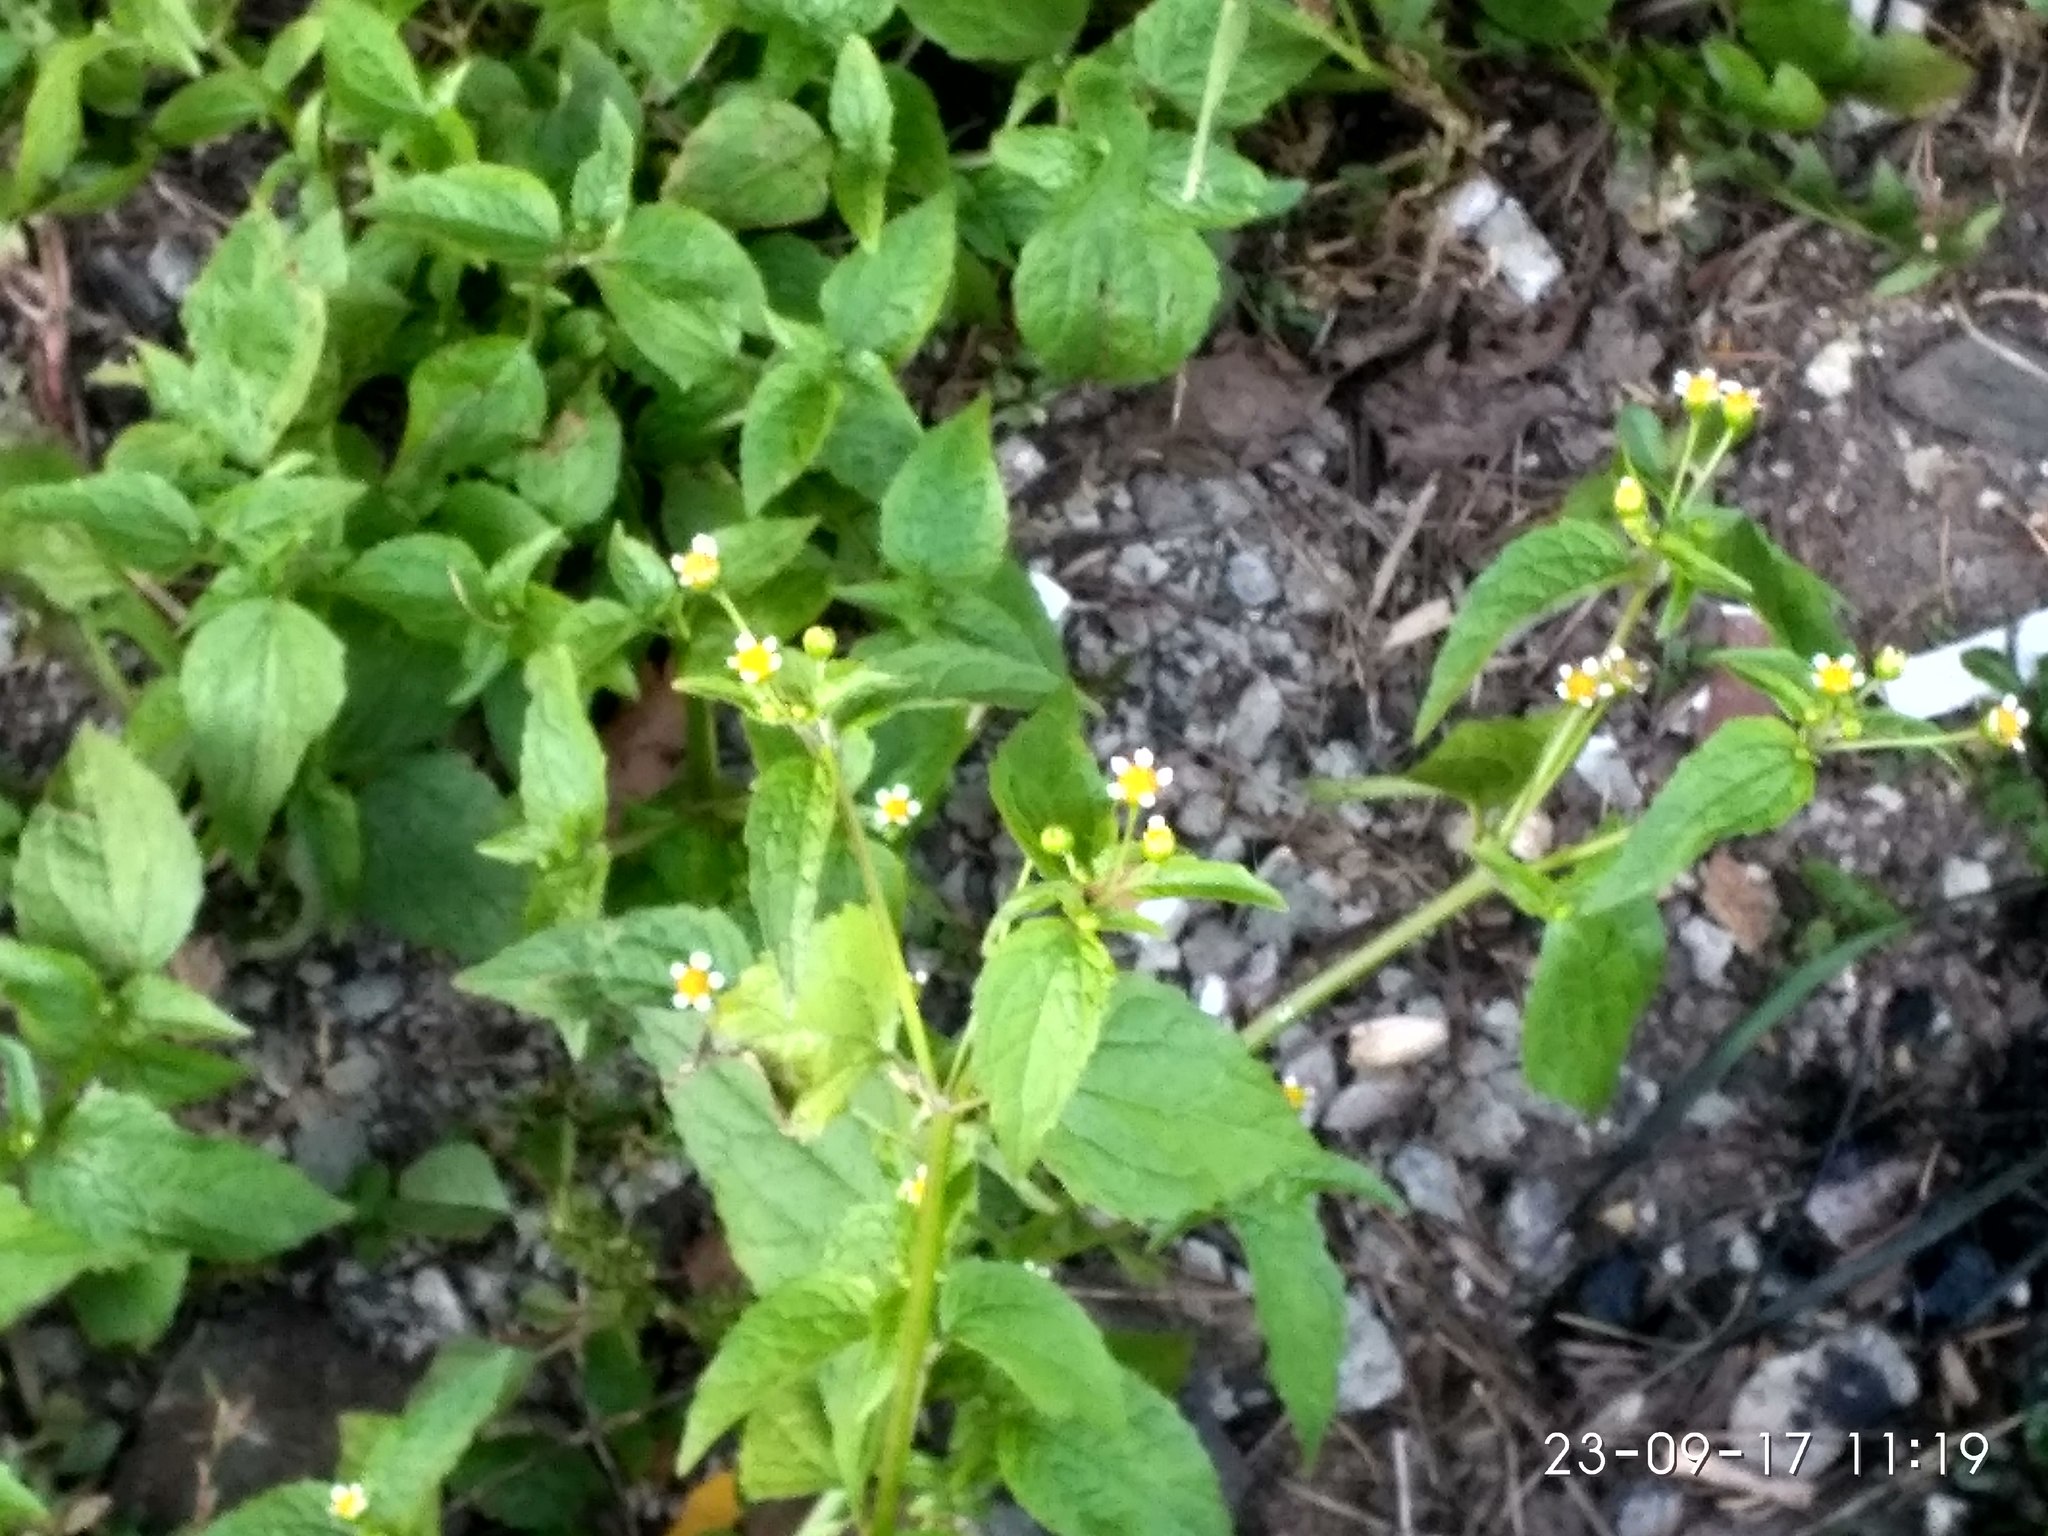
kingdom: Plantae
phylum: Tracheophyta
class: Magnoliopsida
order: Asterales
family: Asteraceae
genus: Galinsoga
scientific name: Galinsoga parviflora
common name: Gallant soldier
